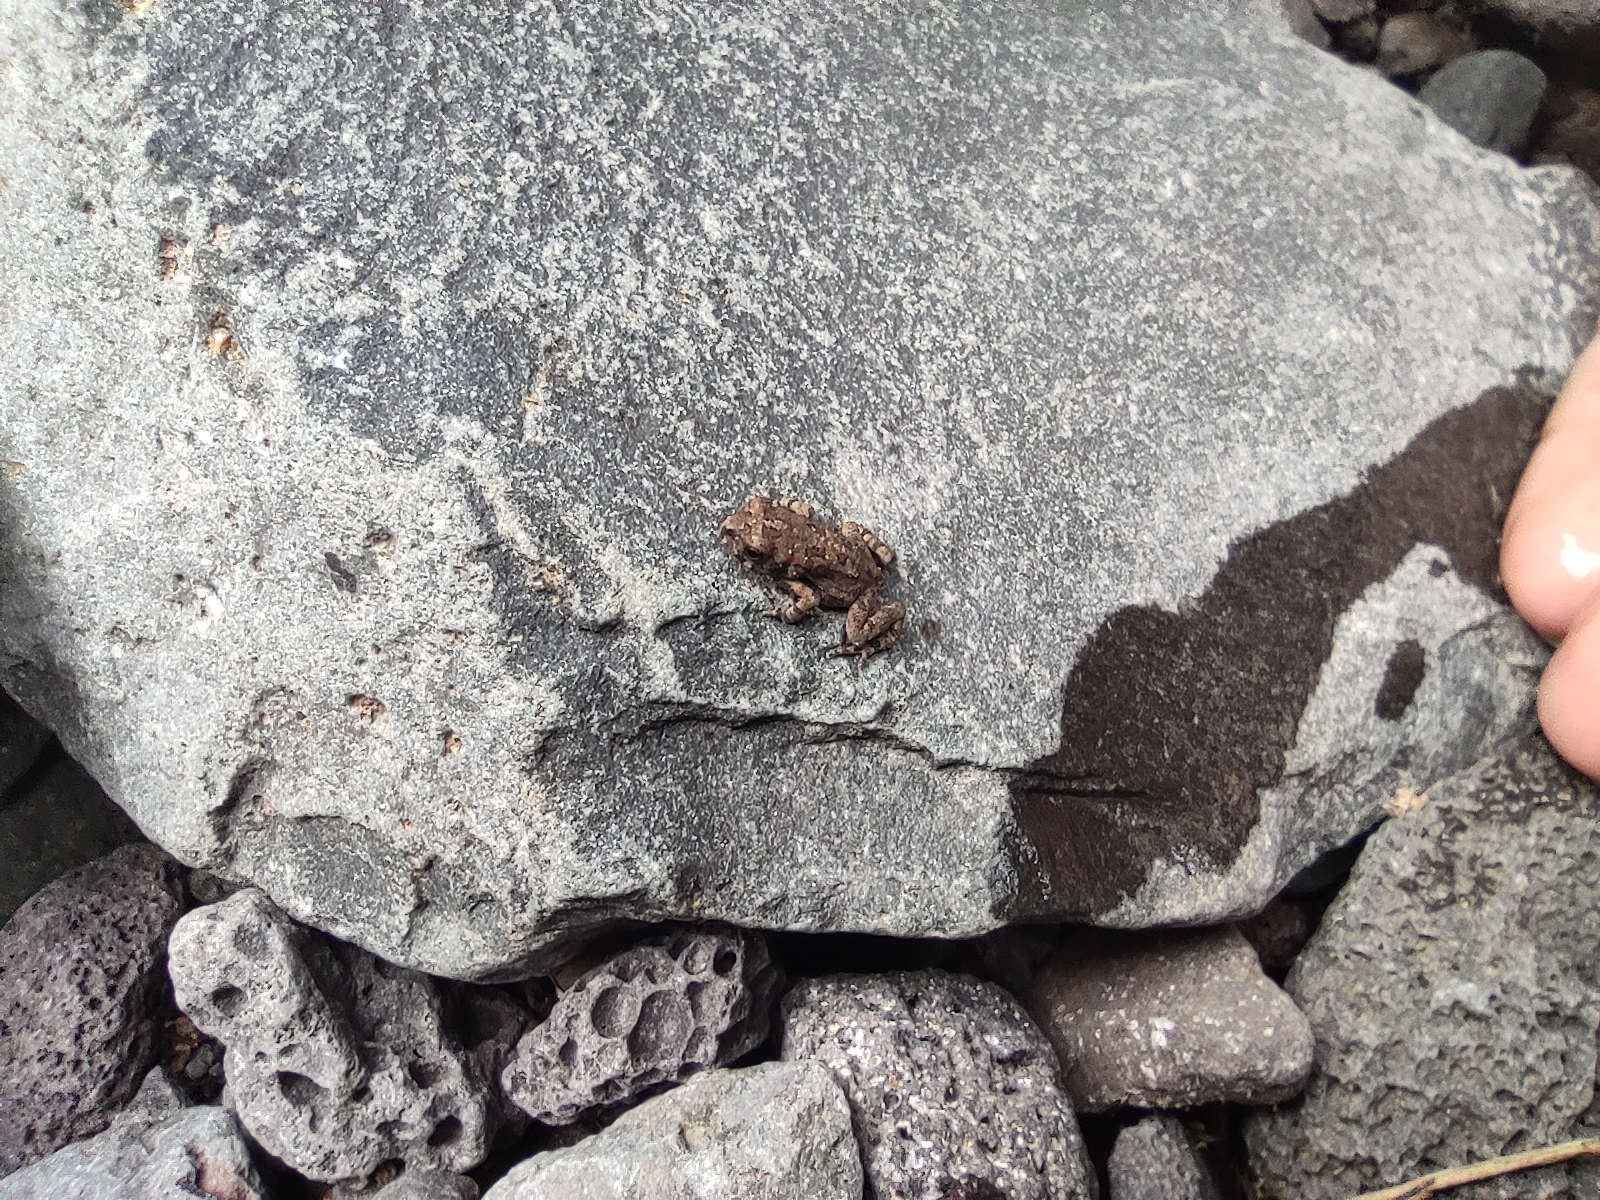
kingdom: Animalia
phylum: Chordata
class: Amphibia
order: Anura
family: Bufonidae
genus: Sclerophrys
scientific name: Sclerophrys gutturalis
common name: African common toad
